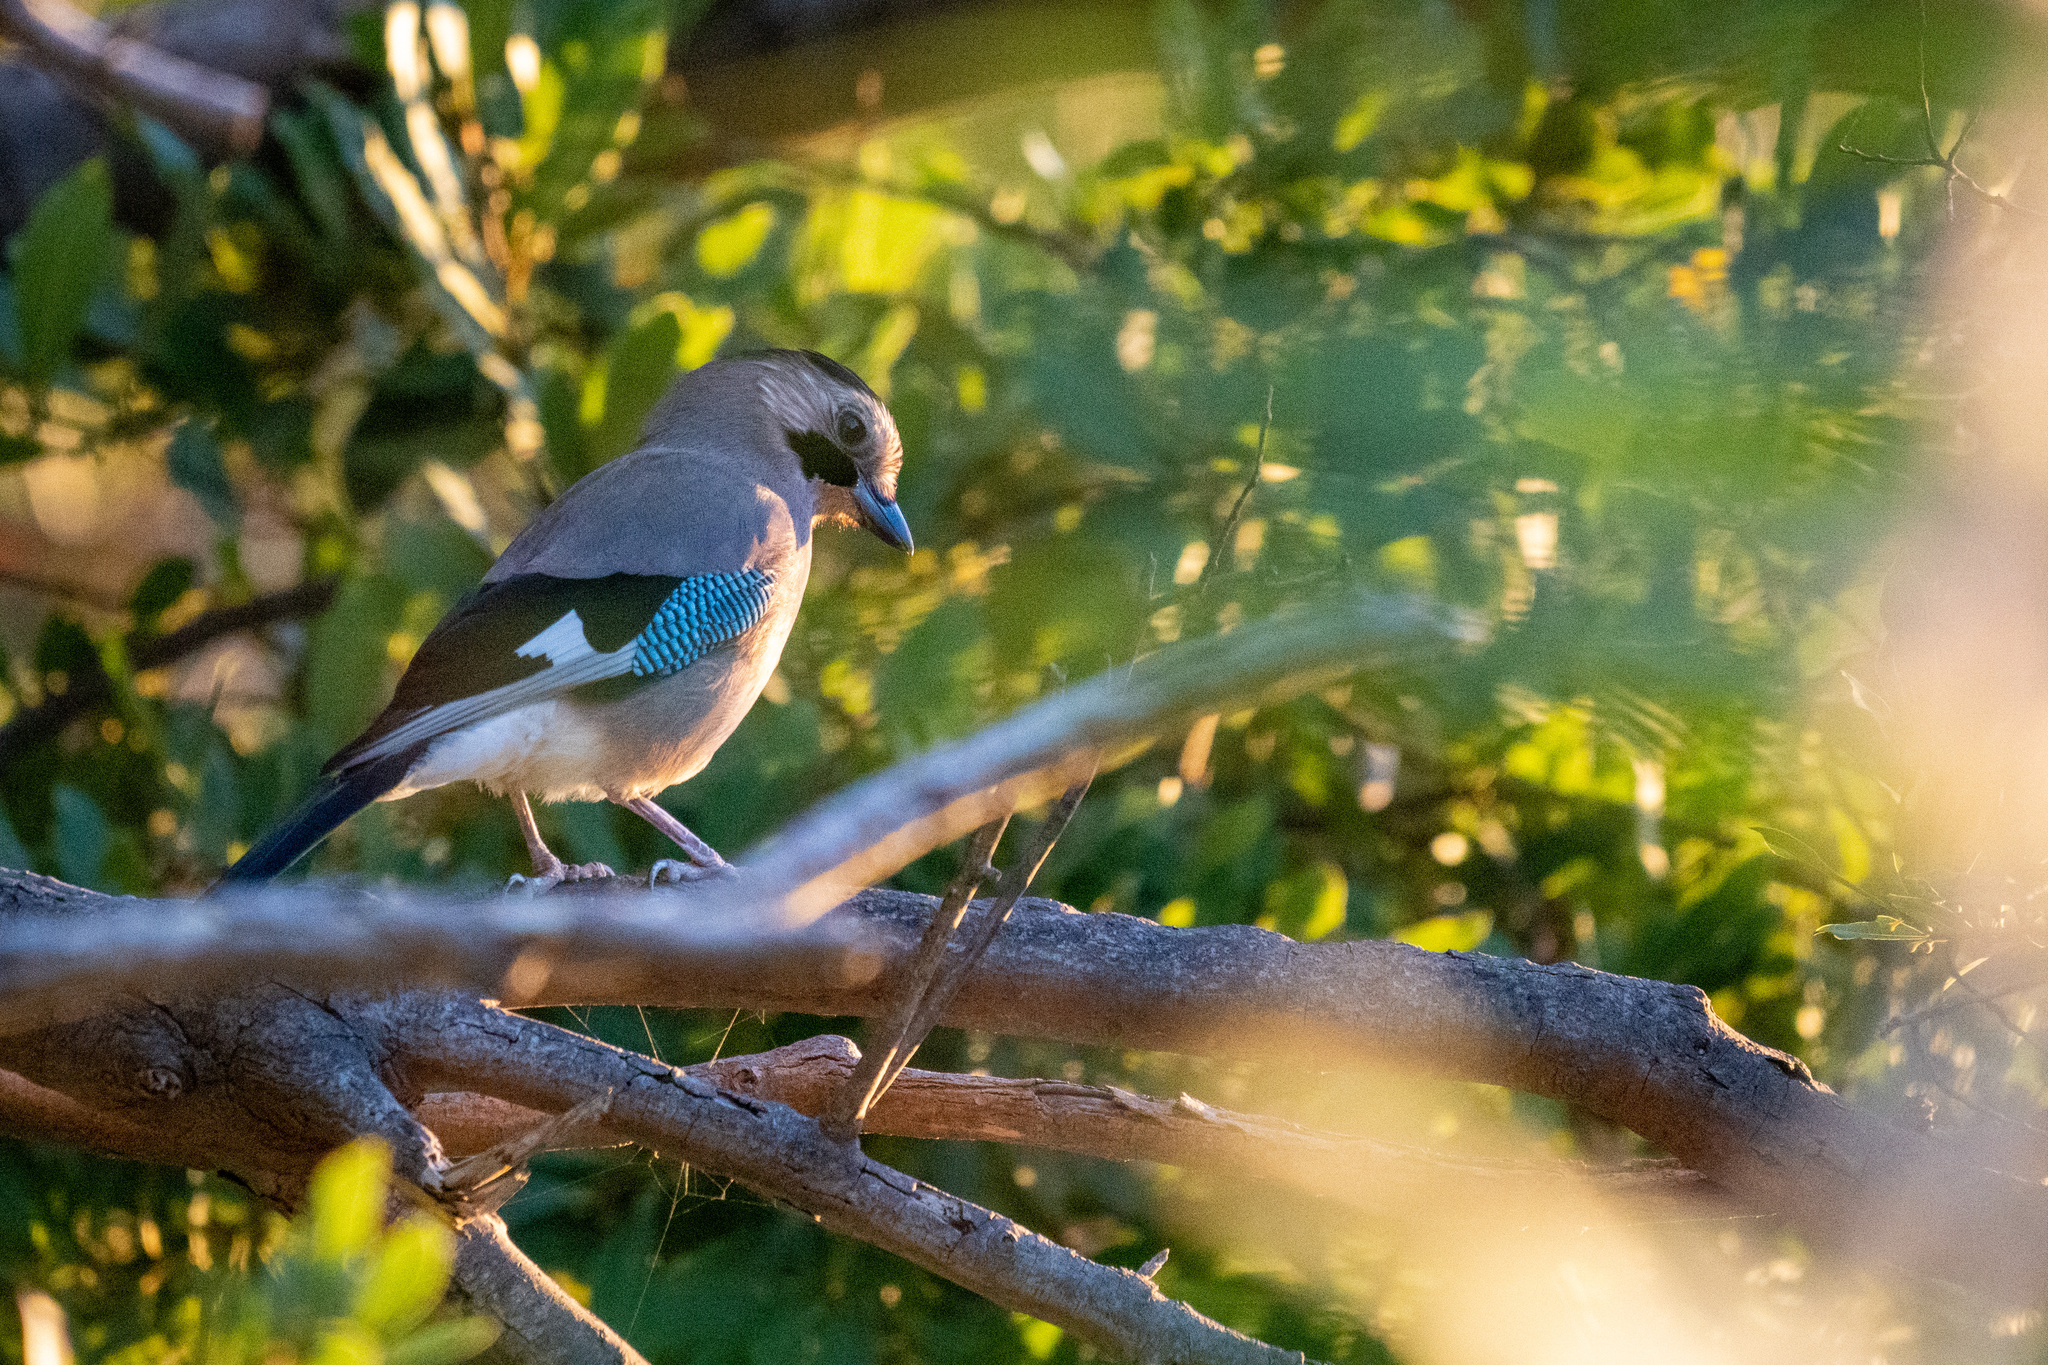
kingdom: Animalia
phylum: Chordata
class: Aves
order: Passeriformes
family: Corvidae
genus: Garrulus
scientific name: Garrulus glandarius
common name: Eurasian jay
